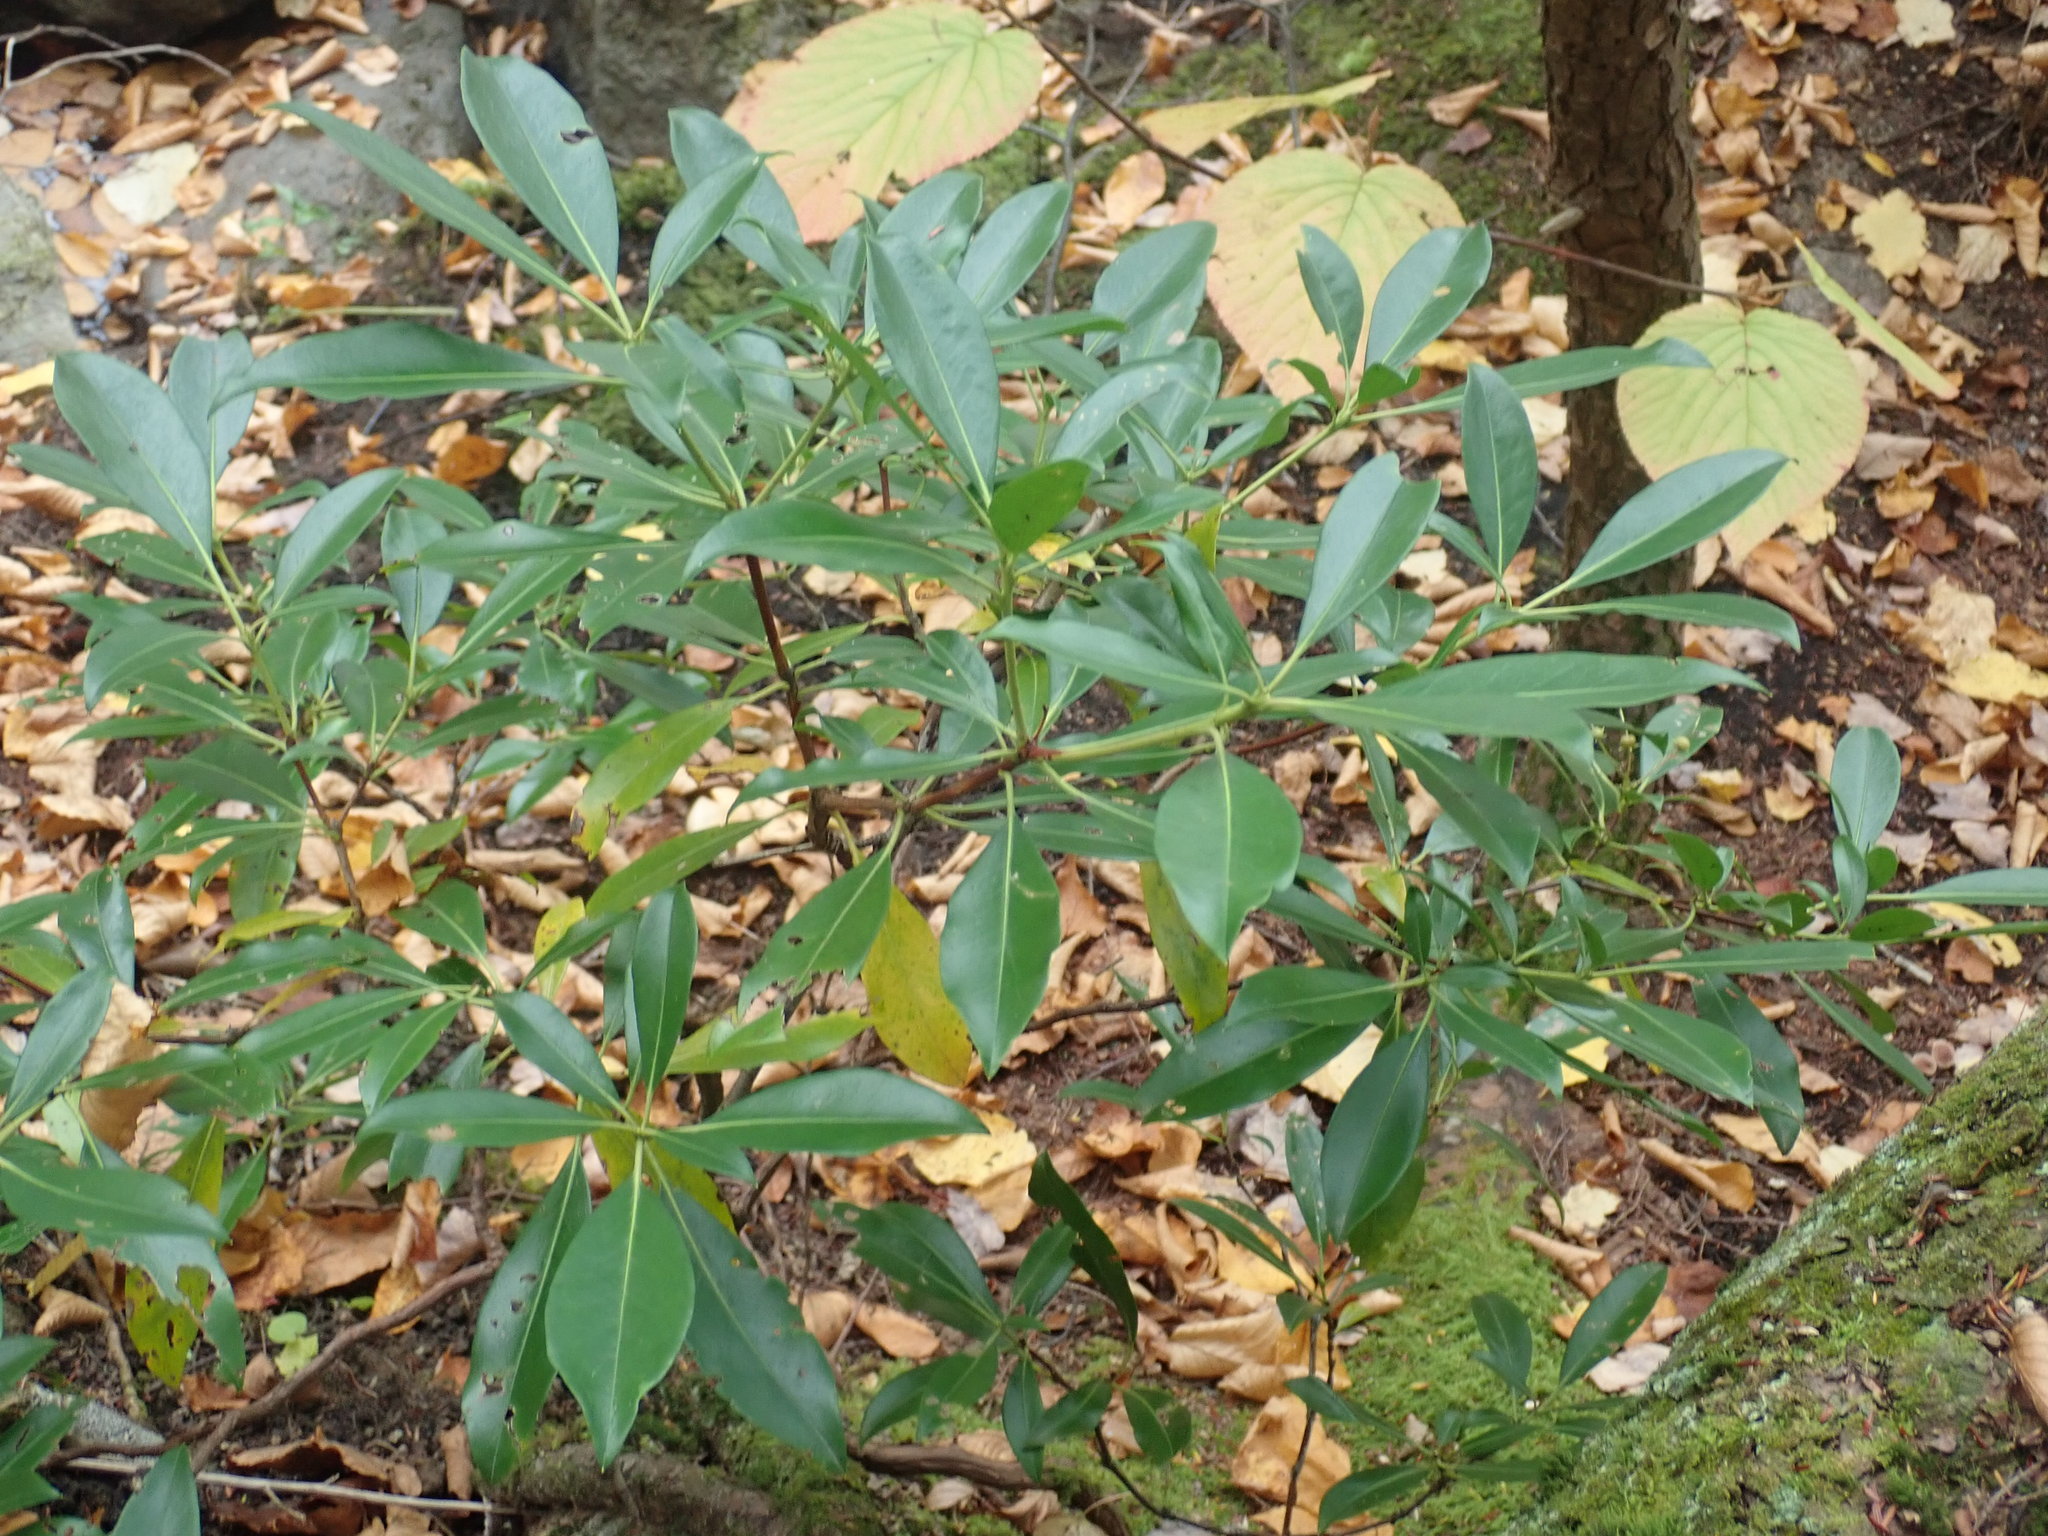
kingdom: Plantae
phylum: Tracheophyta
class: Magnoliopsida
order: Ericales
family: Ericaceae
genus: Kalmia
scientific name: Kalmia latifolia
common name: Mountain-laurel
